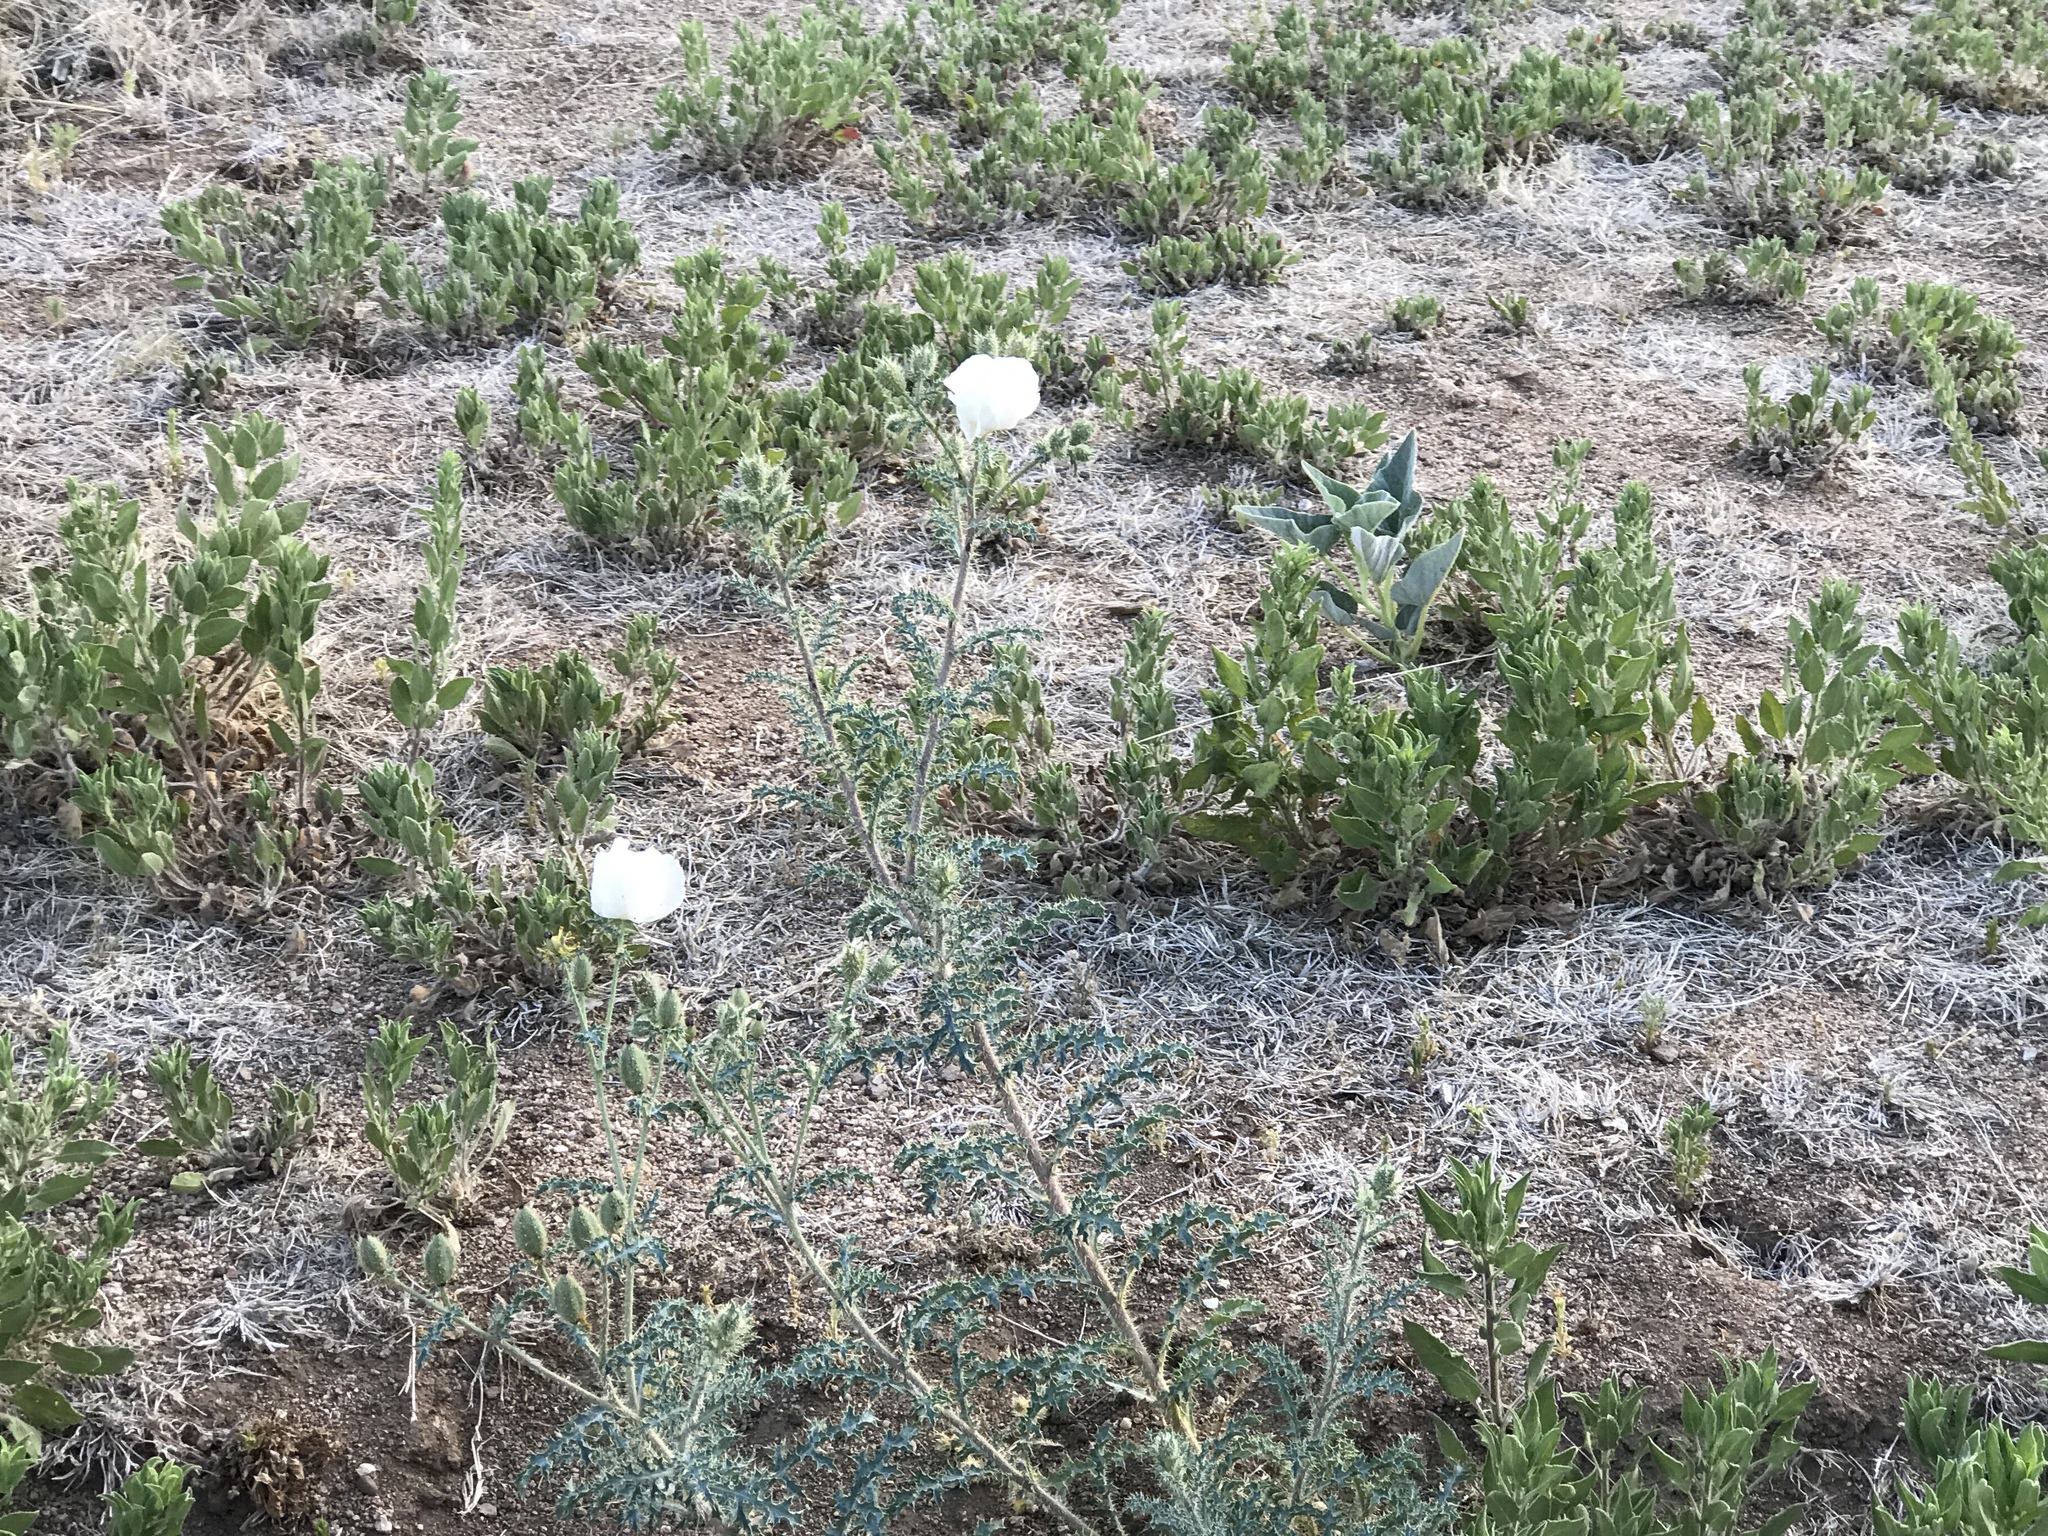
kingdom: Plantae
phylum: Tracheophyta
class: Magnoliopsida
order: Ranunculales
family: Papaveraceae
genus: Argemone
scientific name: Argemone pleiacantha
